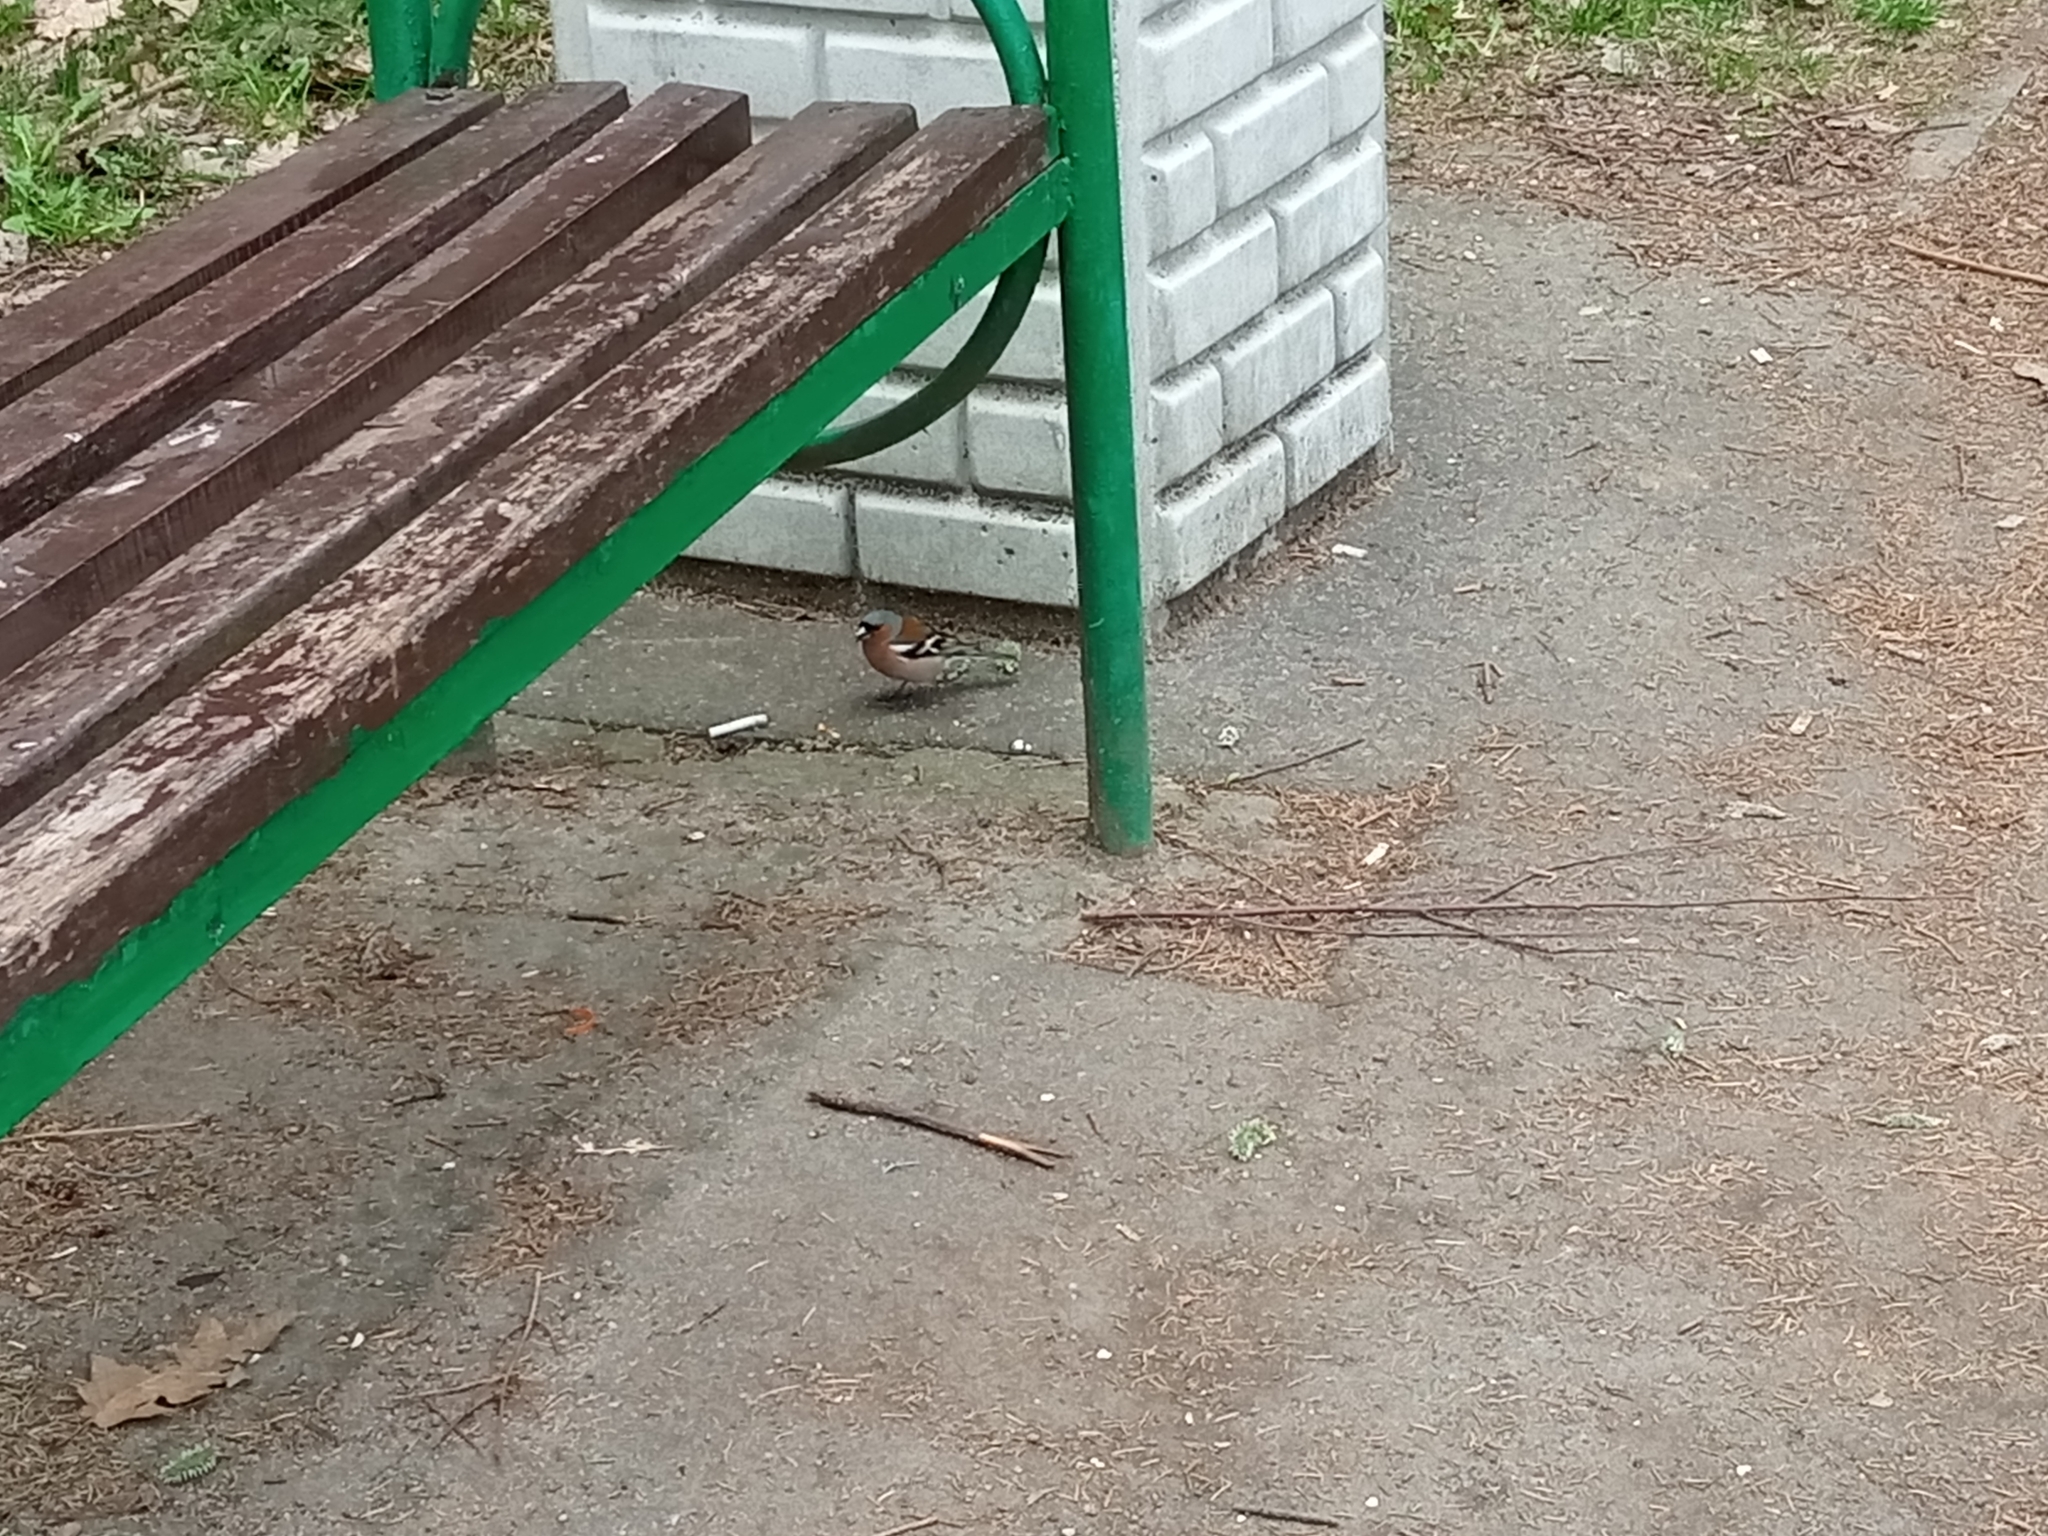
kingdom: Animalia
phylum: Chordata
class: Aves
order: Passeriformes
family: Fringillidae
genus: Fringilla
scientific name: Fringilla coelebs
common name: Common chaffinch
